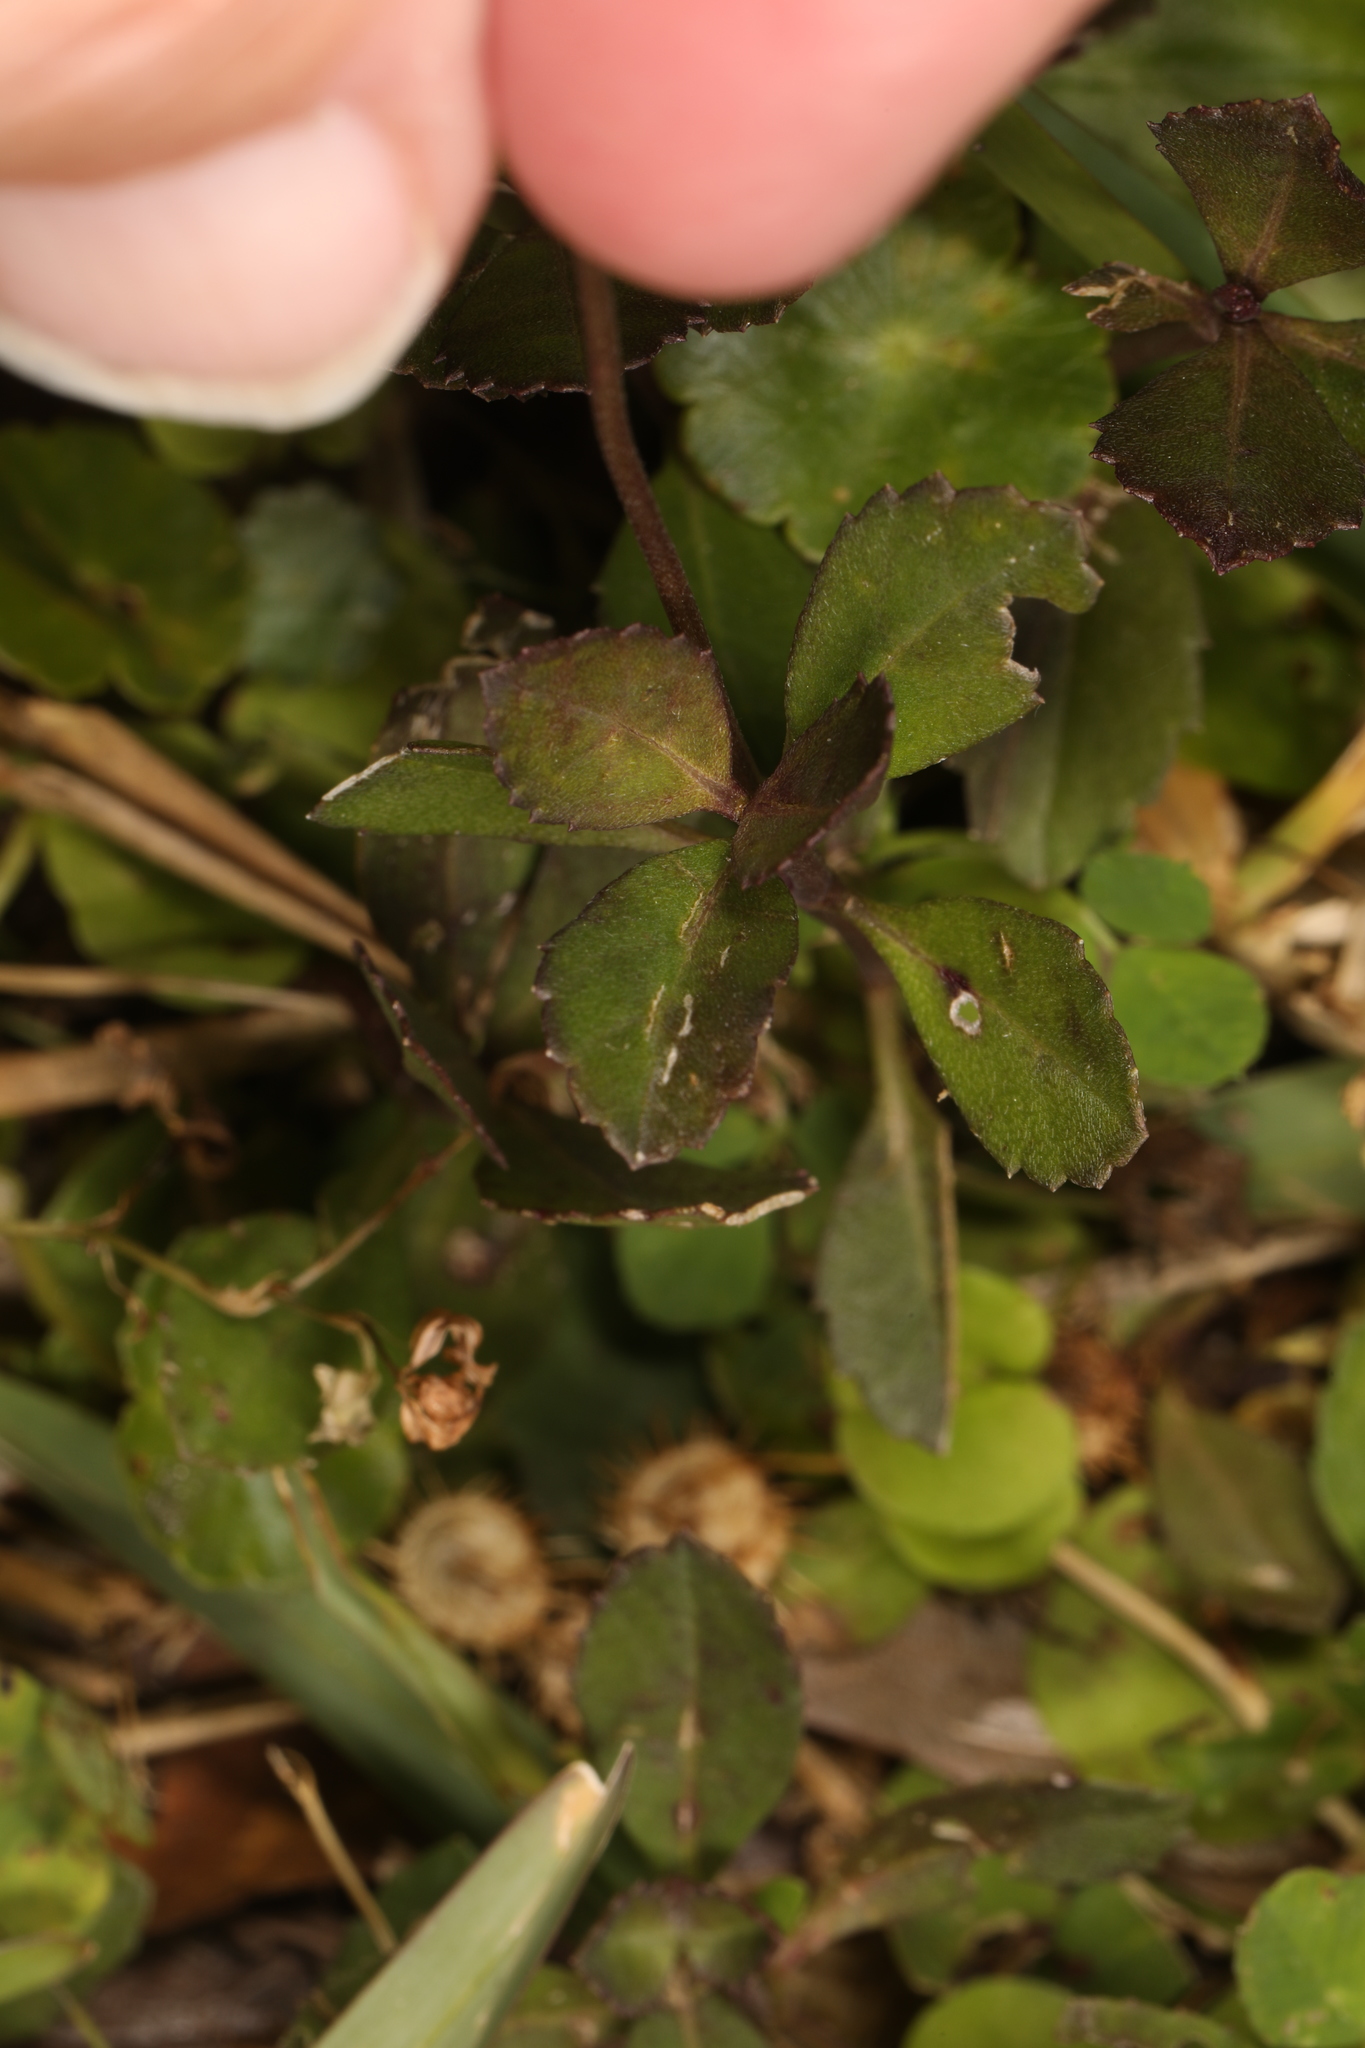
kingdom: Plantae
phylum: Tracheophyta
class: Magnoliopsida
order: Lamiales
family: Verbenaceae
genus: Phyla
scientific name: Phyla nodiflora
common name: Frogfruit
